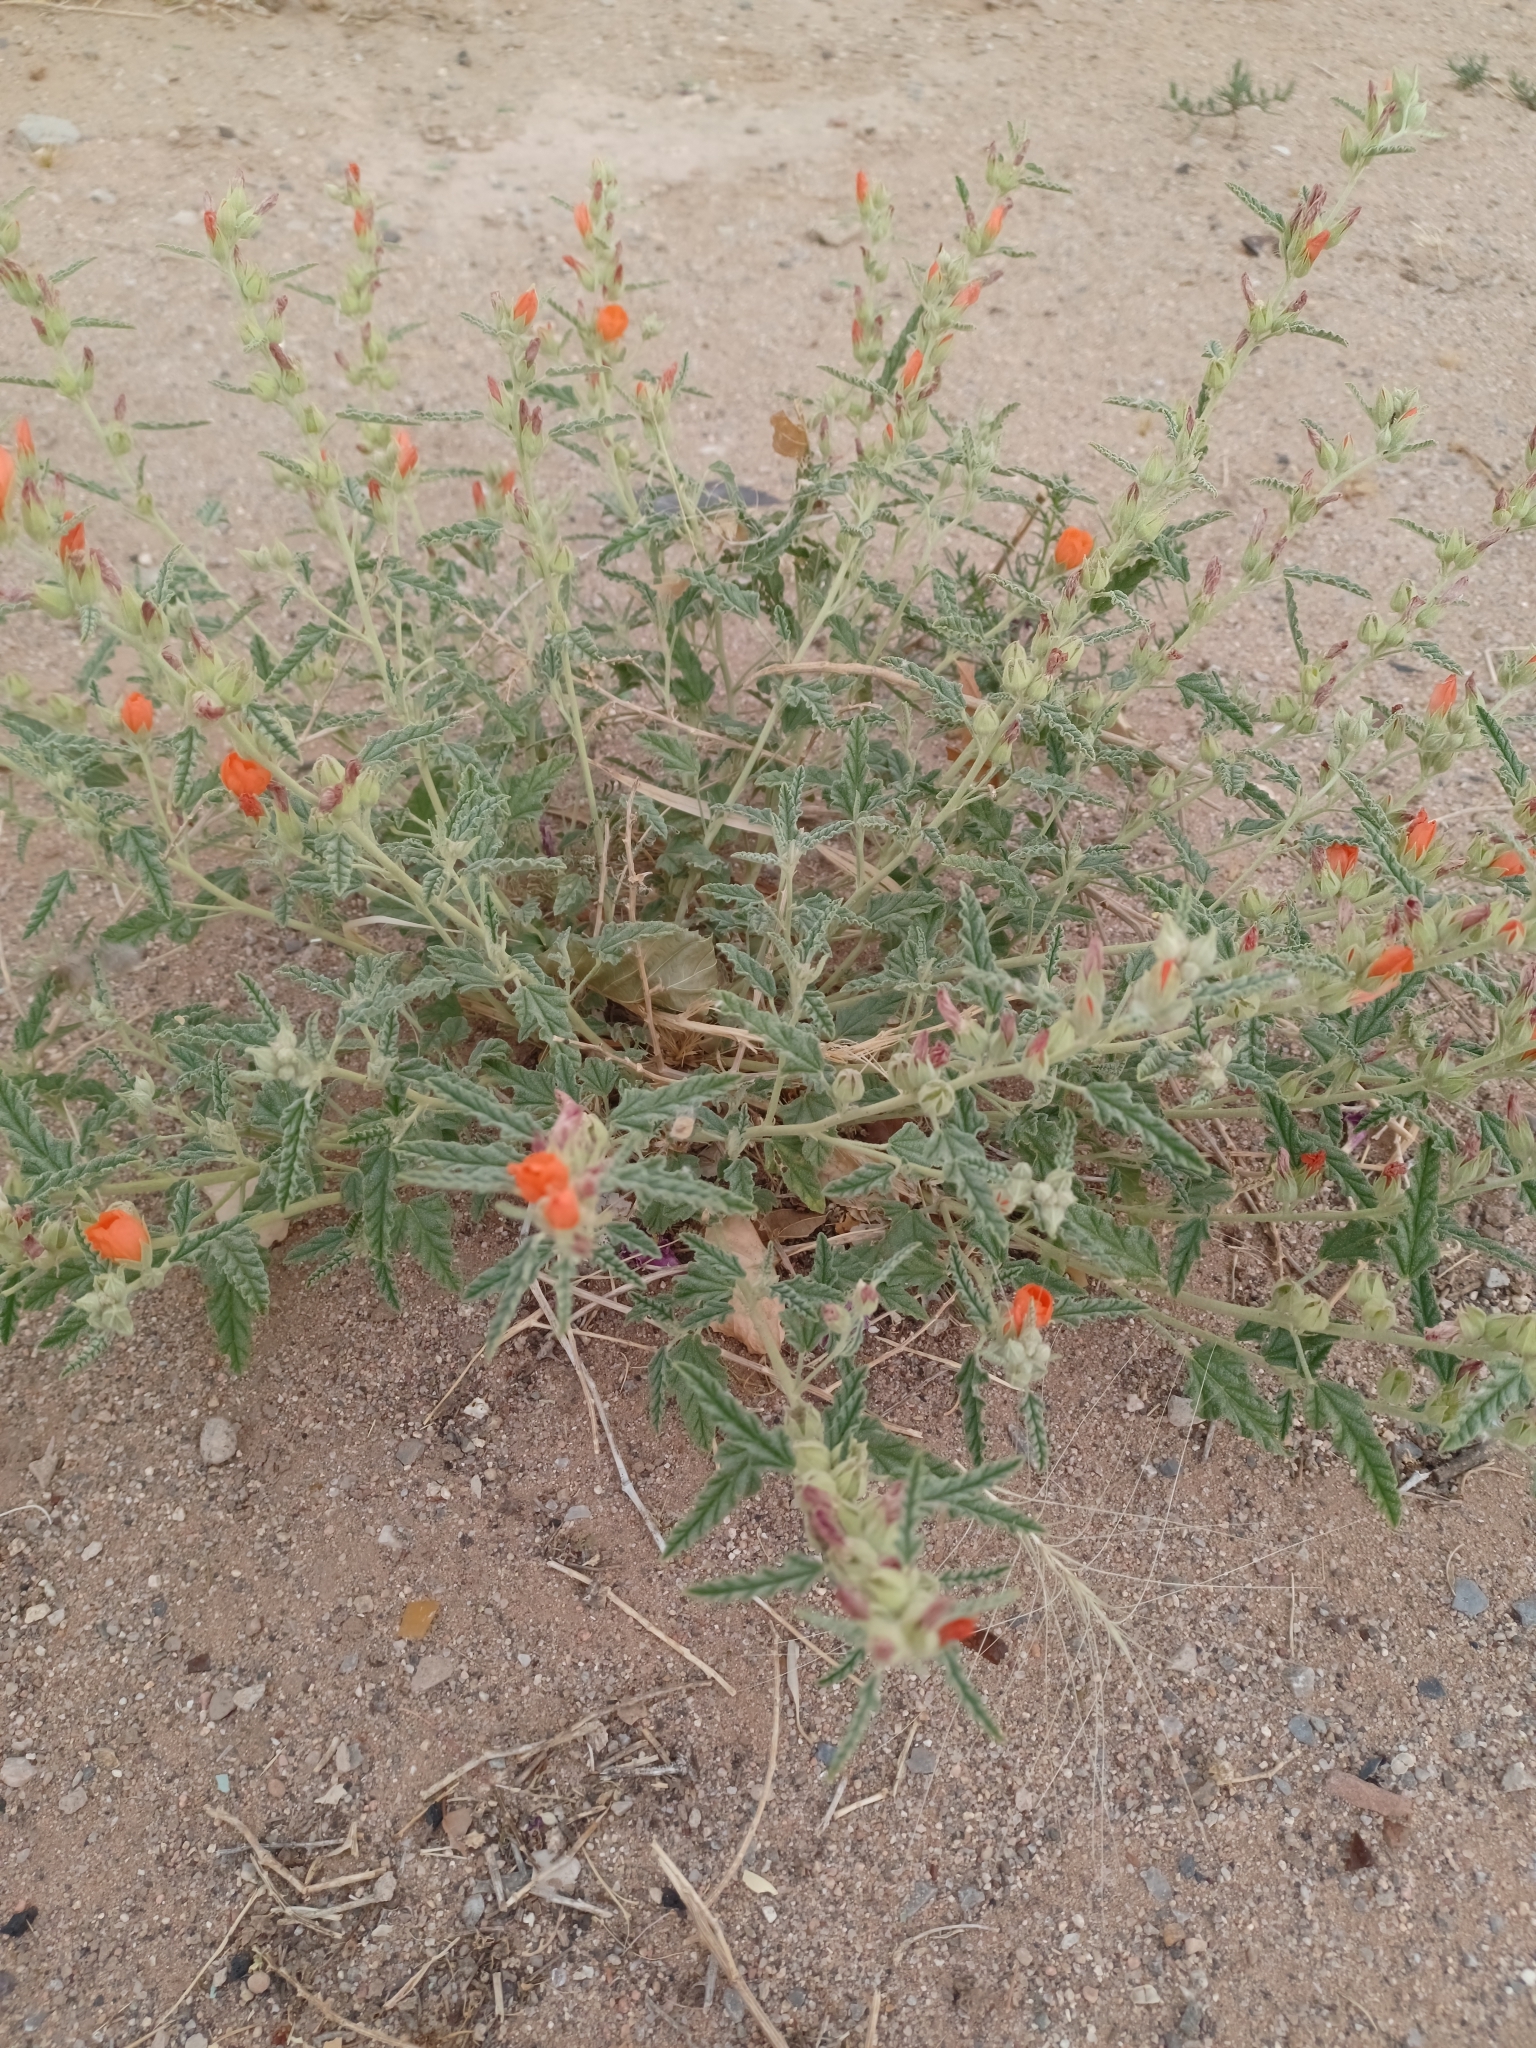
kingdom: Plantae
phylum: Tracheophyta
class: Magnoliopsida
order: Malvales
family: Malvaceae
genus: Sphaeralcea
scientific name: Sphaeralcea hastulata
